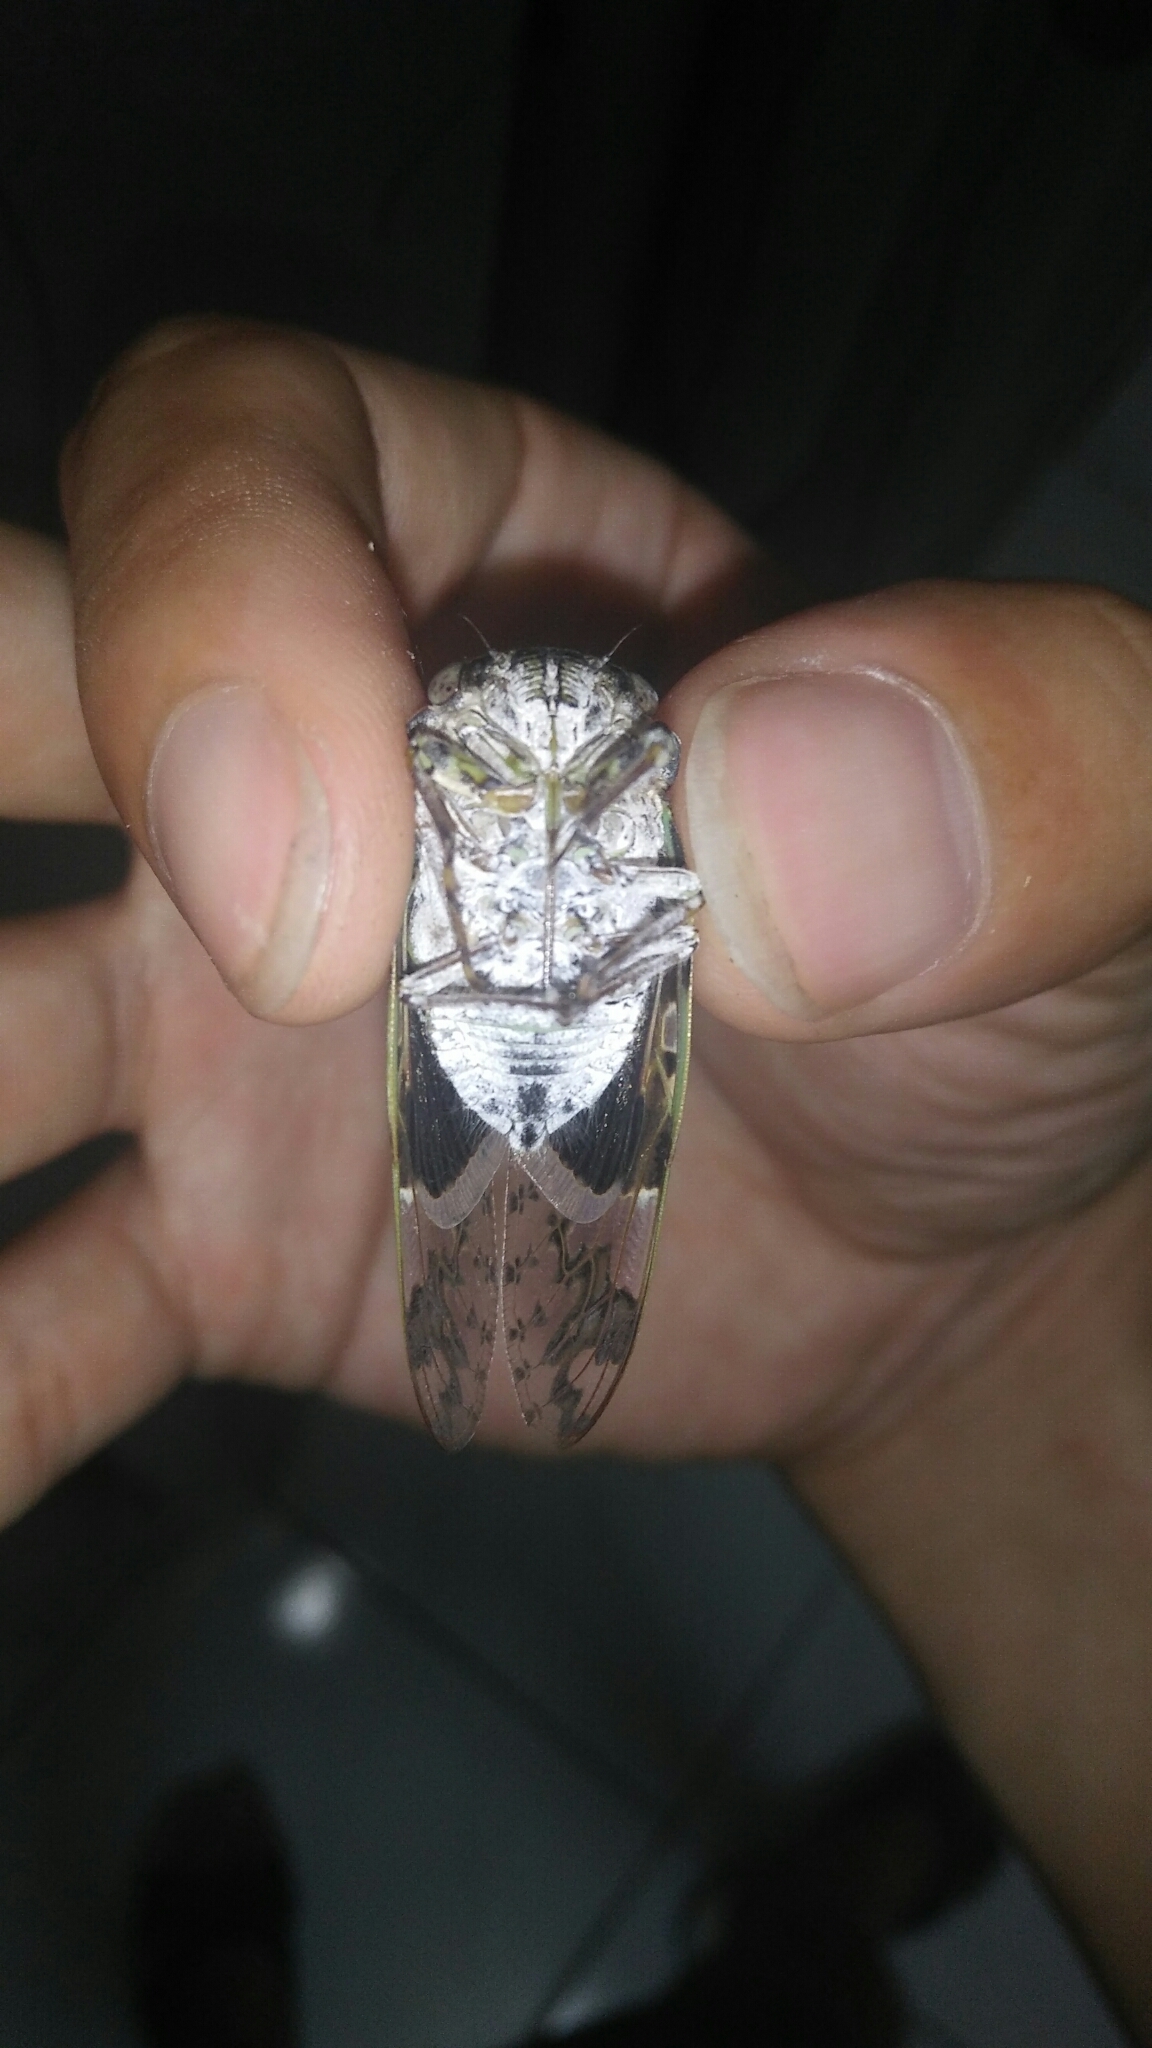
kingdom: Animalia
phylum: Arthropoda
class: Insecta
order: Hemiptera
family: Cicadidae
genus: Platypleura
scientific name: Platypleura takasagona
